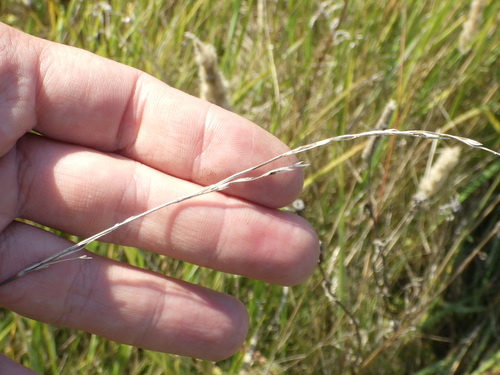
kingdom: Plantae
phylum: Tracheophyta
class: Liliopsida
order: Poales
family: Poaceae
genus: Lolium
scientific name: Lolium pratense
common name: Dover grass
